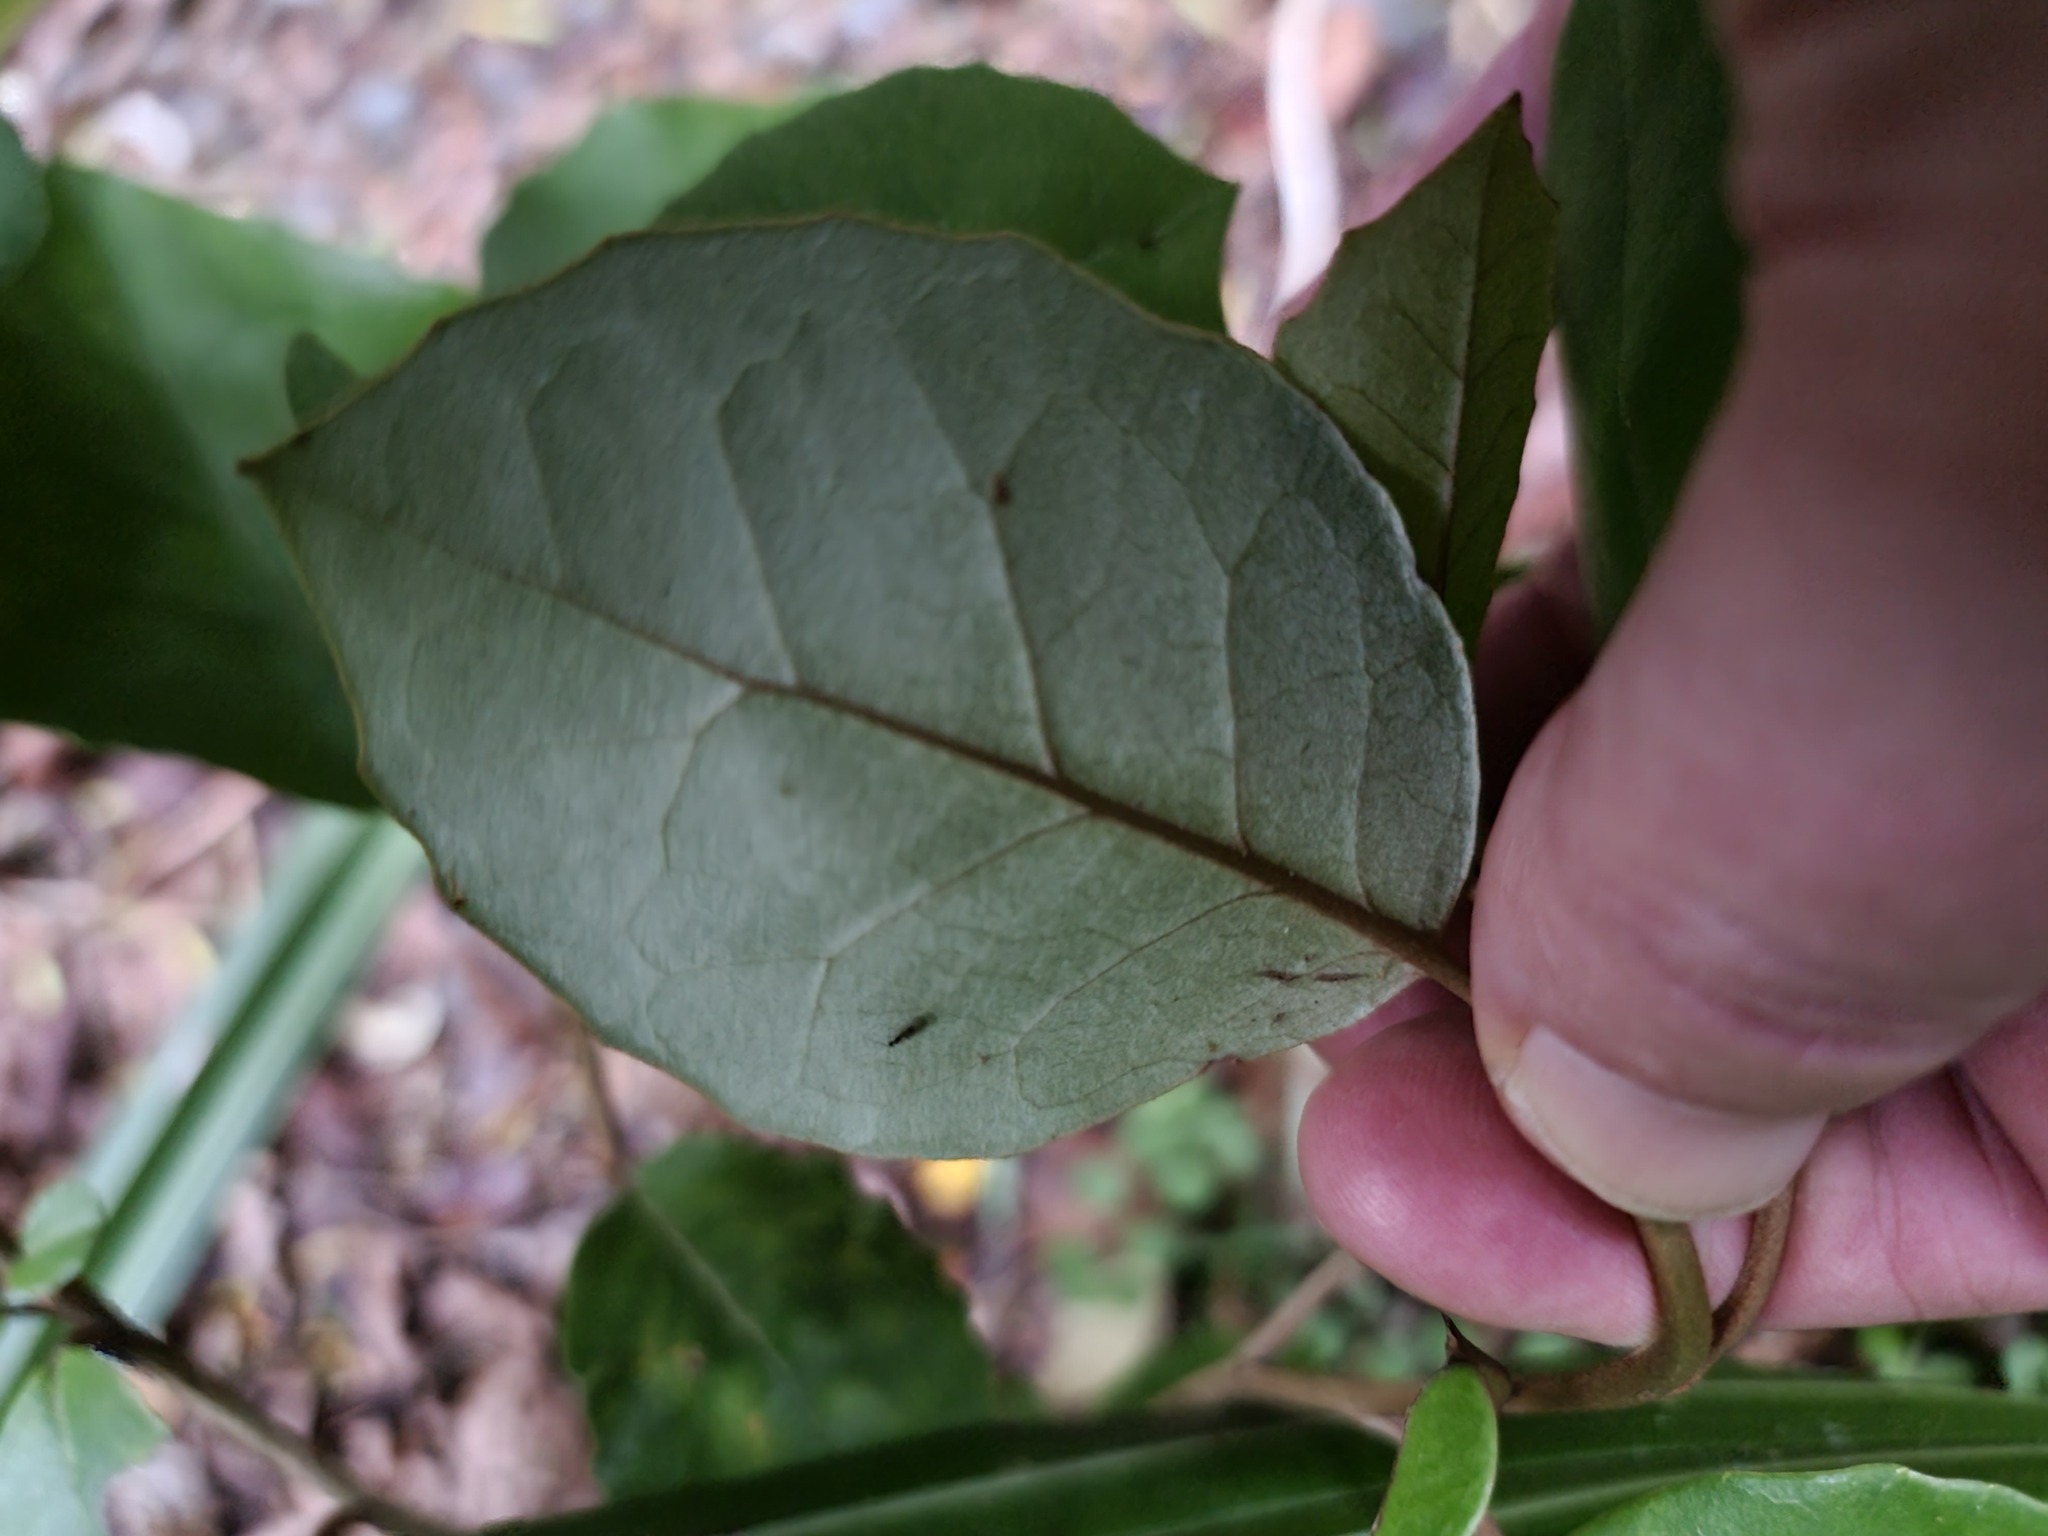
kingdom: Plantae
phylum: Tracheophyta
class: Magnoliopsida
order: Asterales
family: Asteraceae
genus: Olearia
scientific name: Olearia arborescens
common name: Glossy tree daisy
